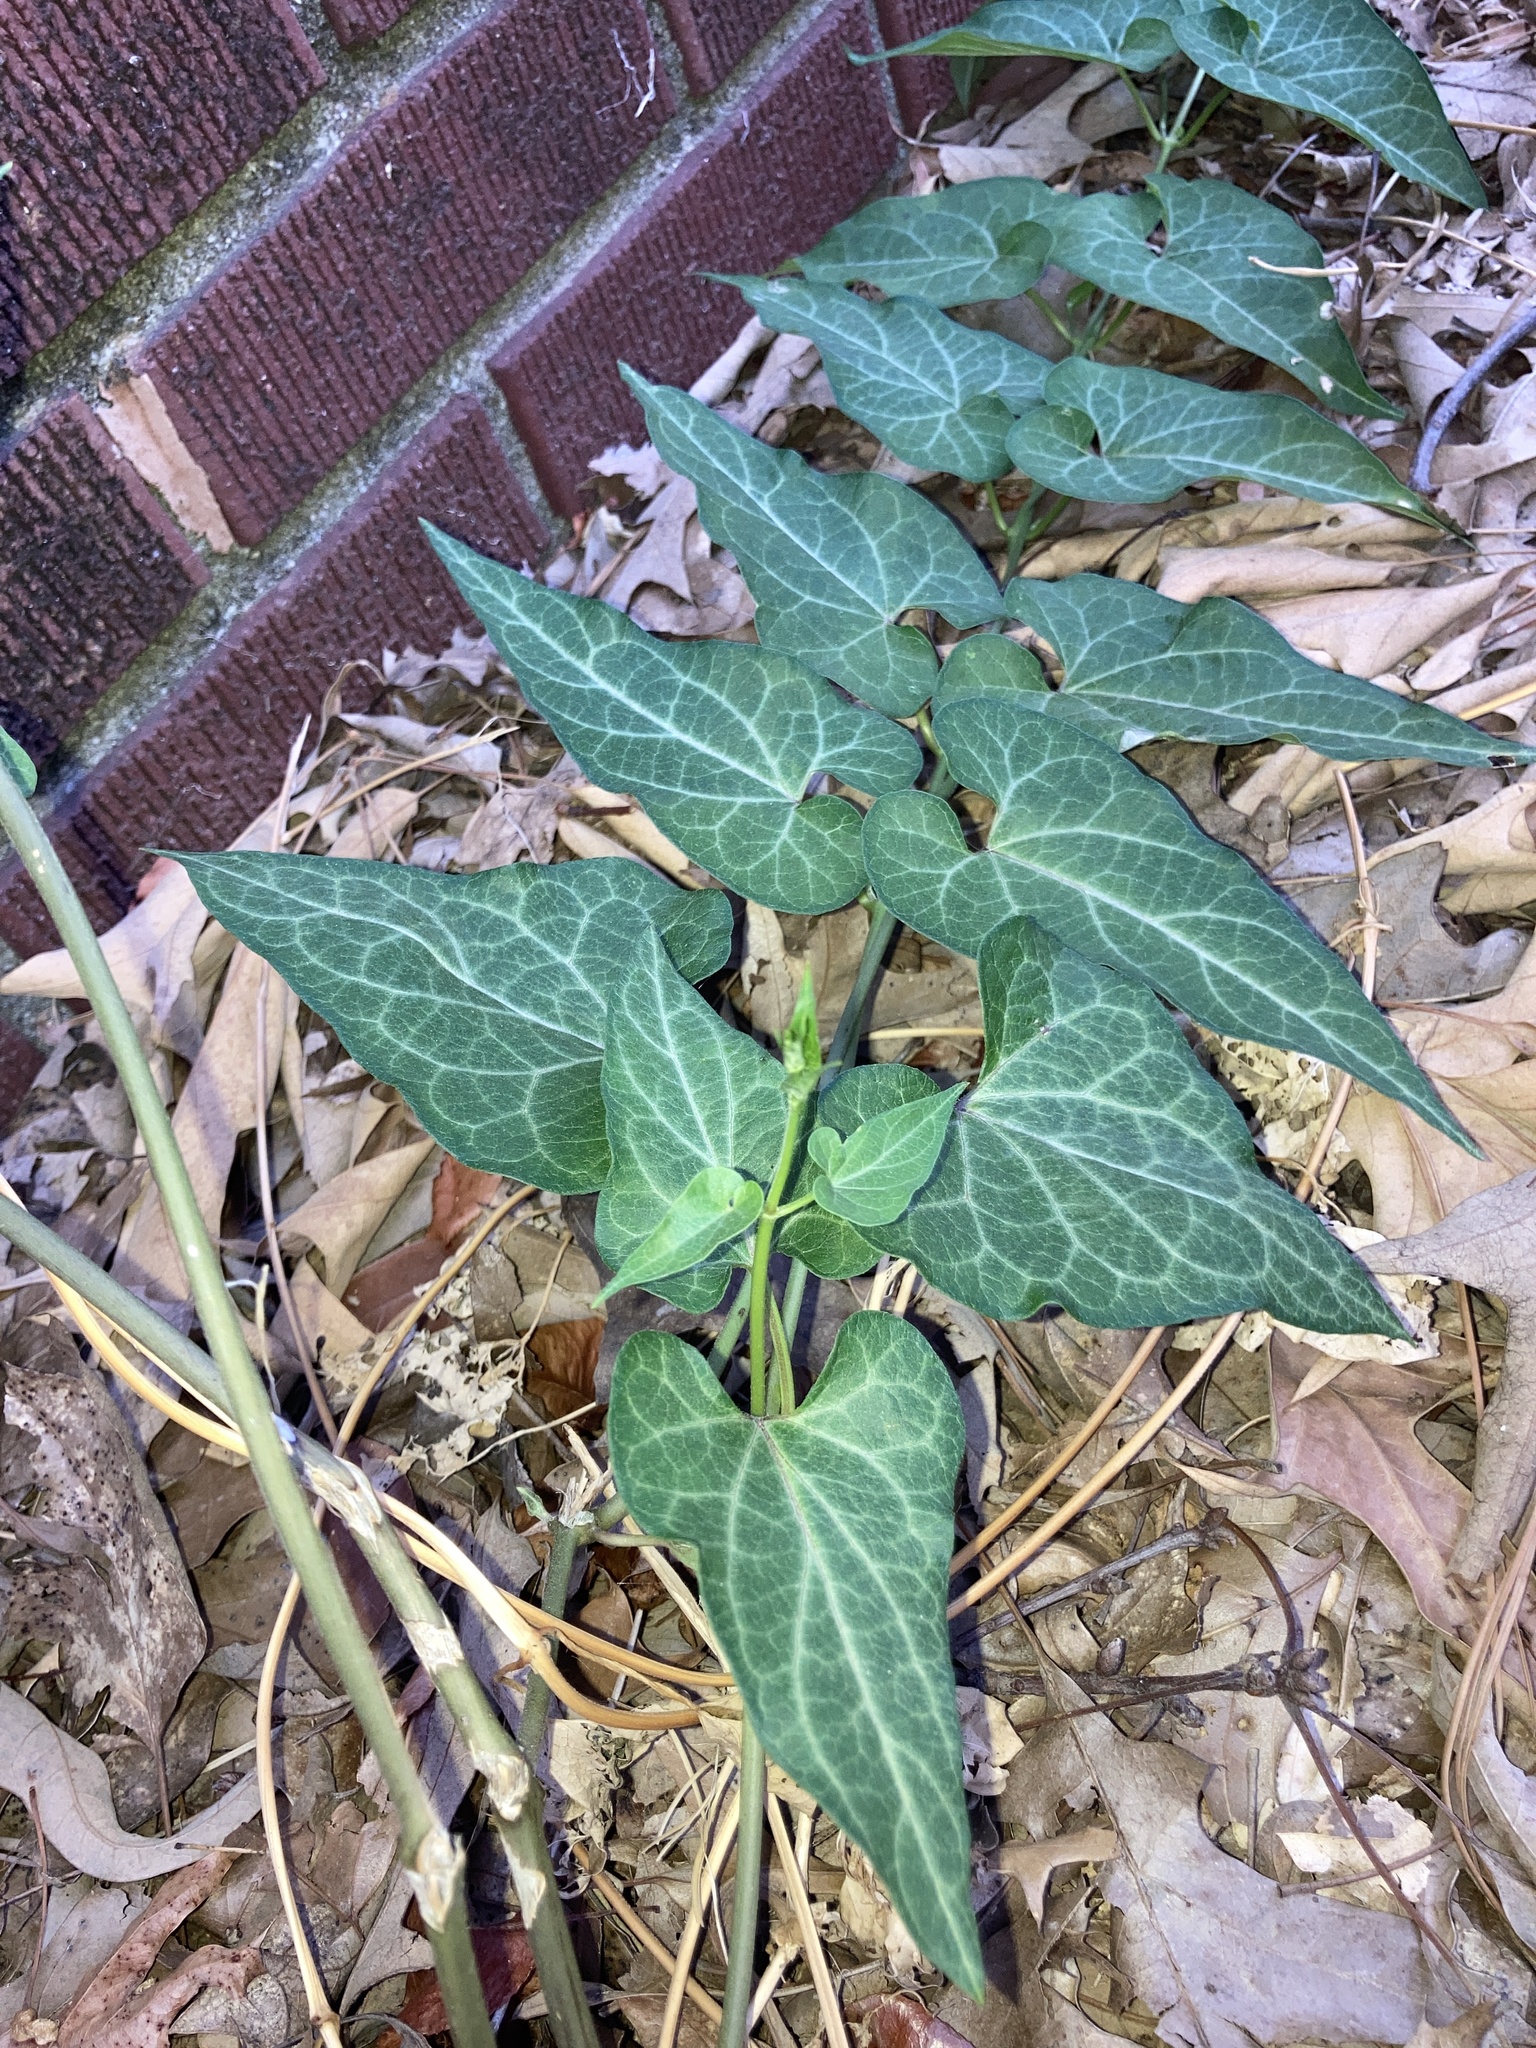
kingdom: Plantae
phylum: Tracheophyta
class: Magnoliopsida
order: Gentianales
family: Apocynaceae
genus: Cynanchum
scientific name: Cynanchum laeve
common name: Sandvine
